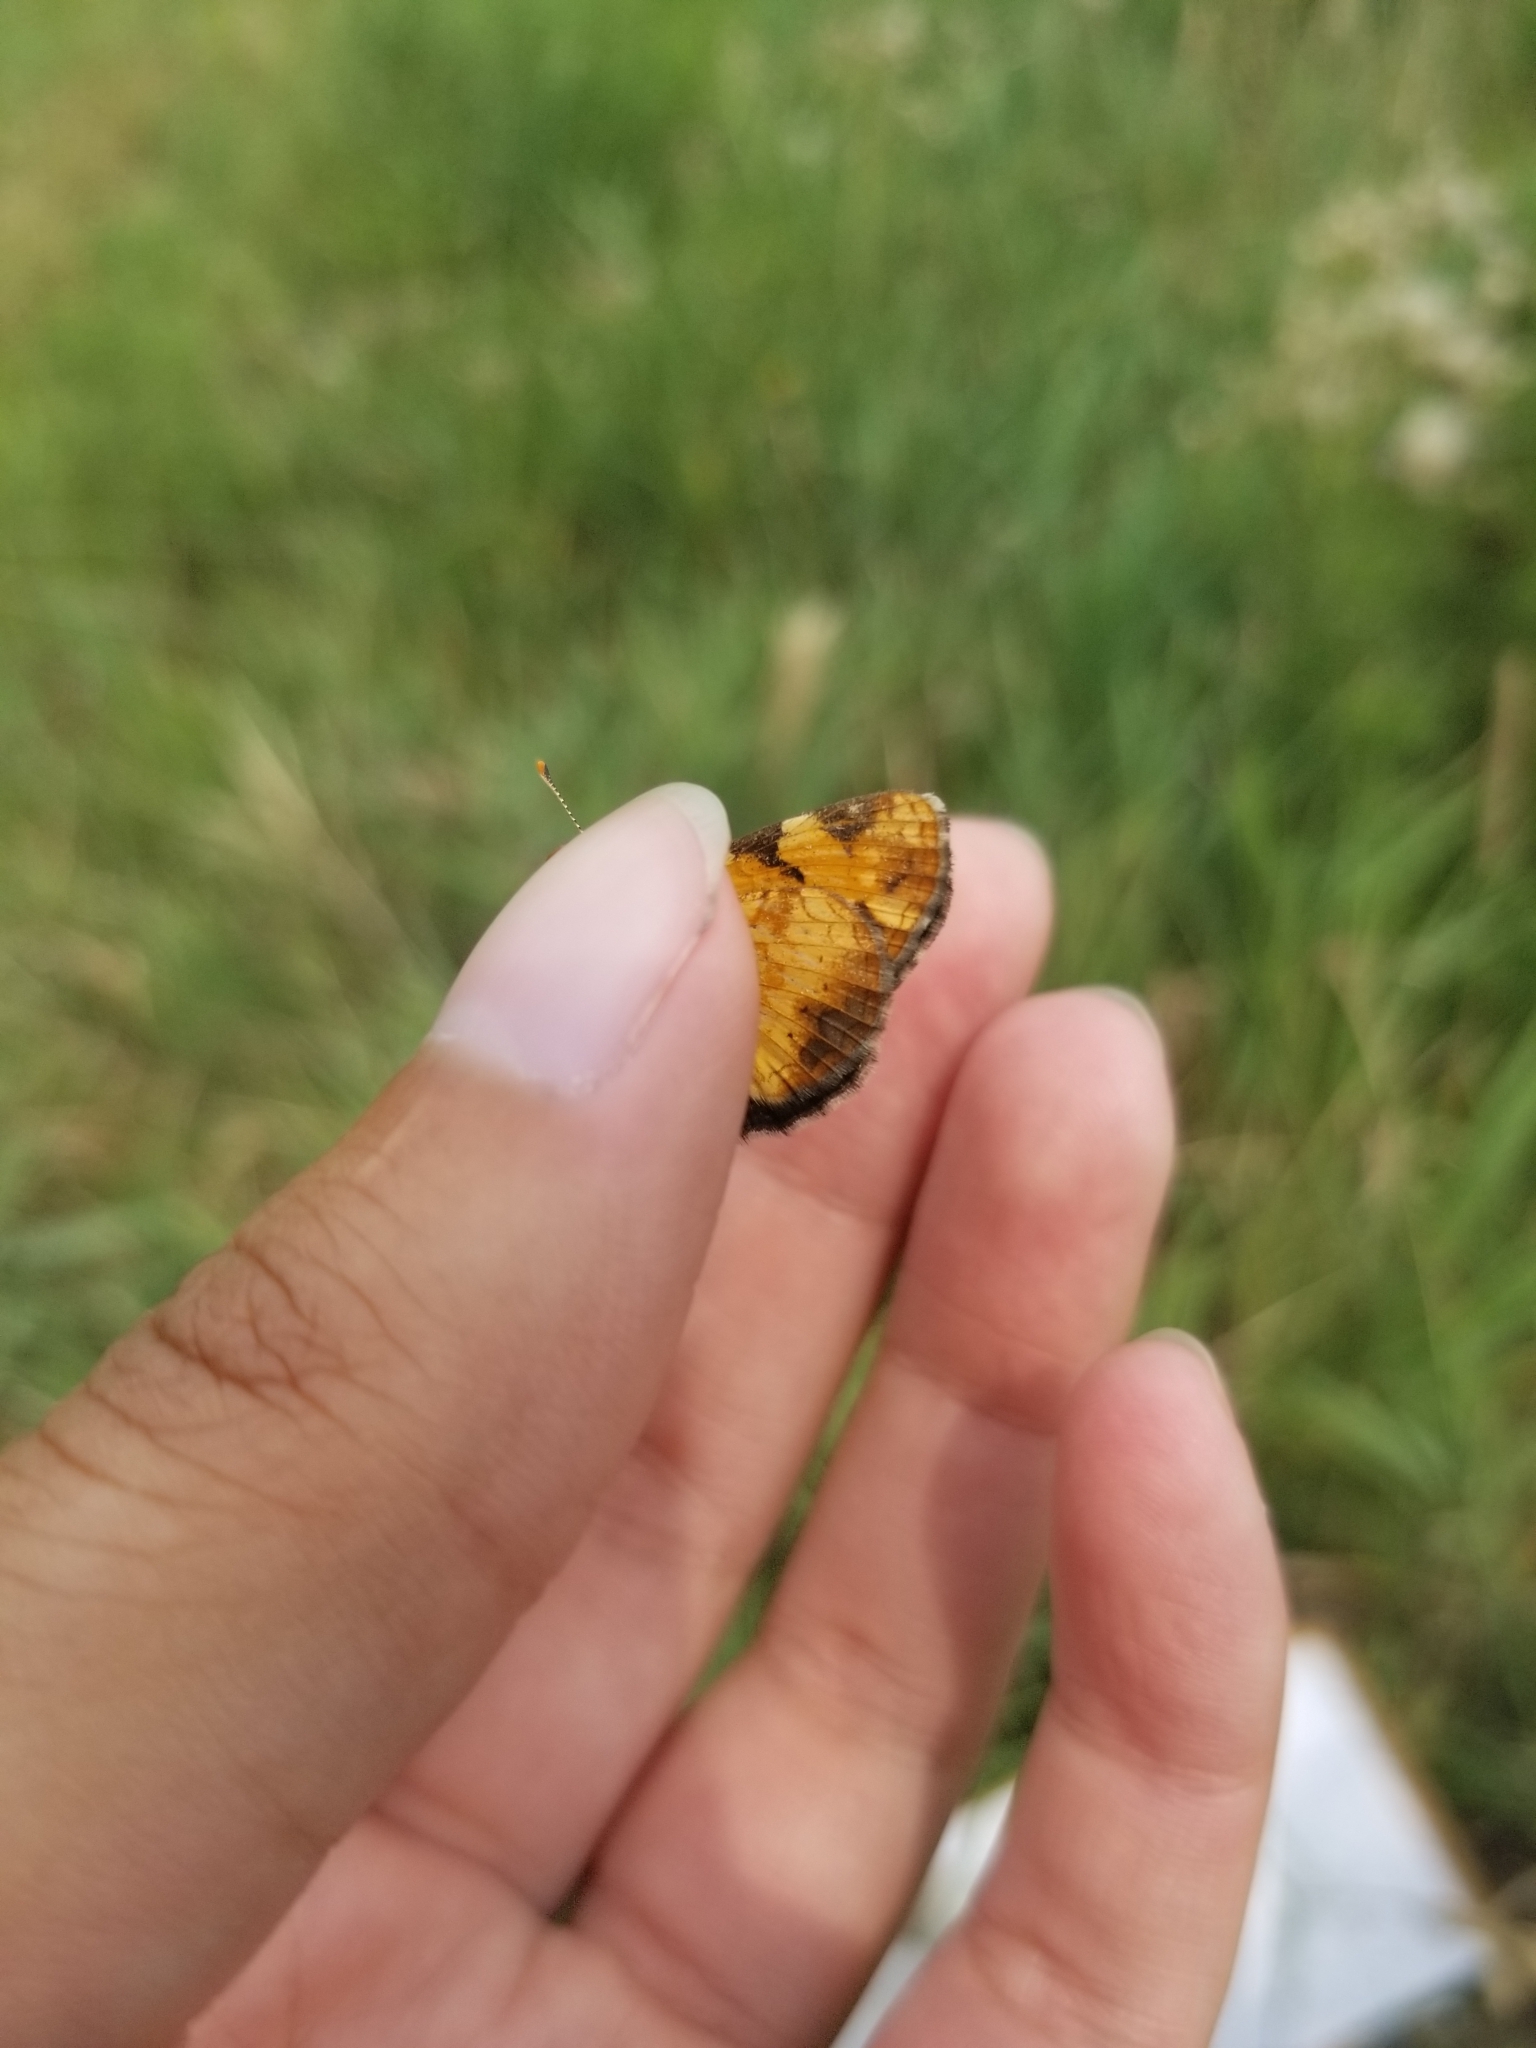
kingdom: Animalia
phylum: Arthropoda
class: Insecta
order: Lepidoptera
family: Nymphalidae
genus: Phyciodes
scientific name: Phyciodes tharos
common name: Pearl crescent
